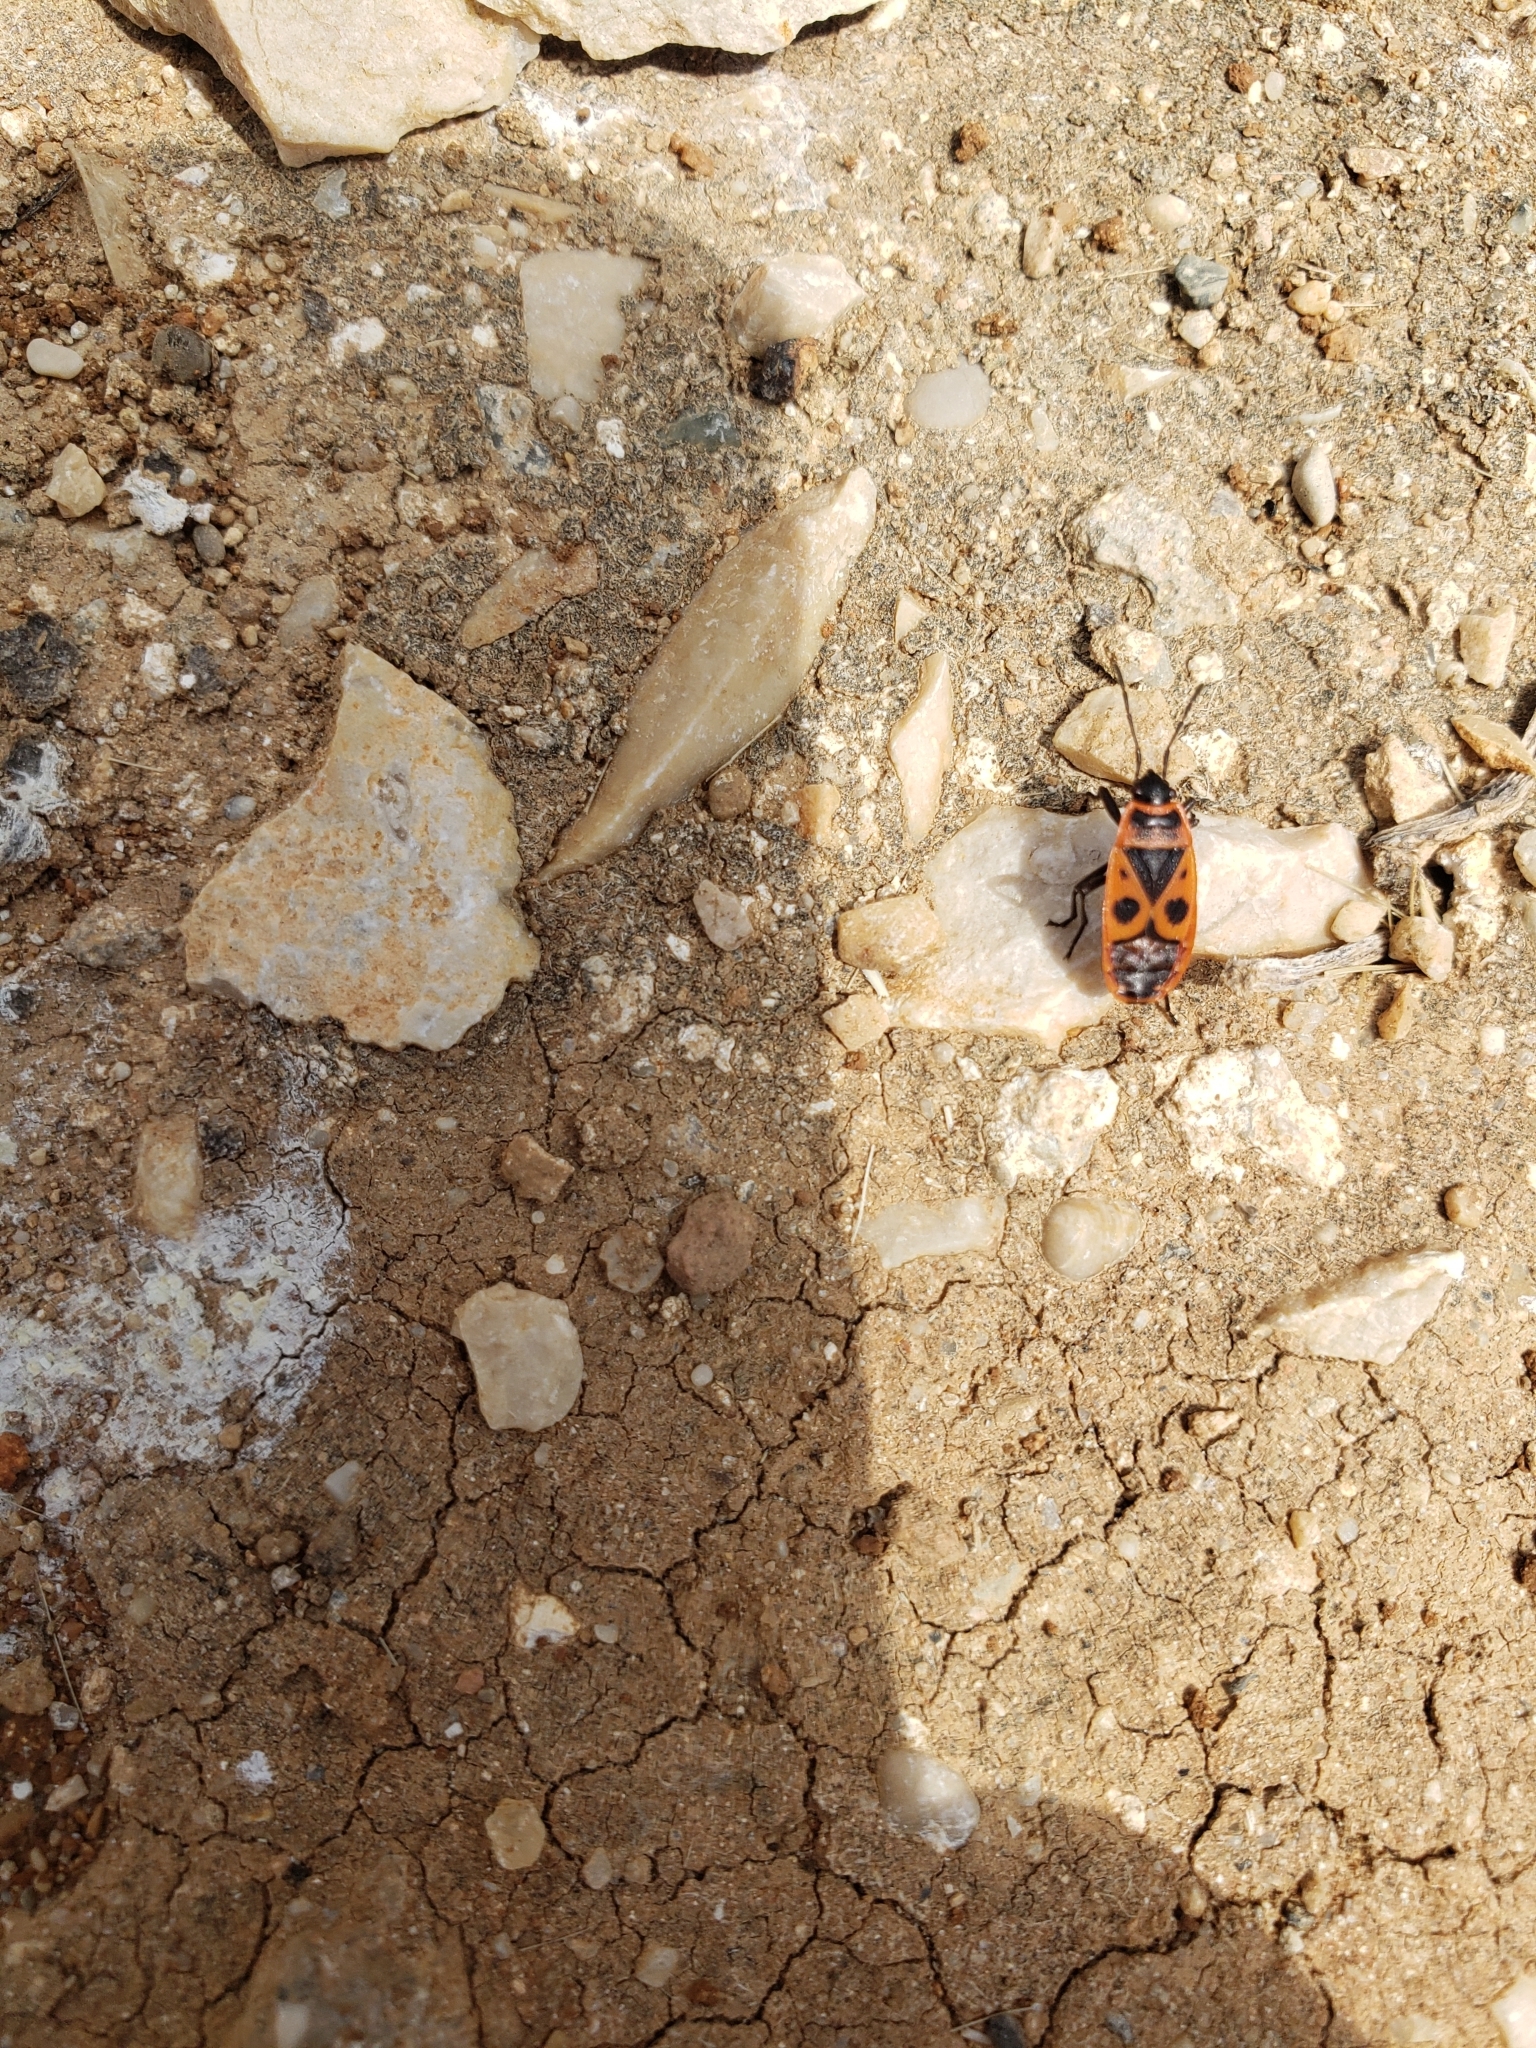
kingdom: Animalia
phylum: Arthropoda
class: Insecta
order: Hemiptera
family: Pyrrhocoridae
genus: Pyrrhocoris
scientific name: Pyrrhocoris apterus
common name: Firebug
